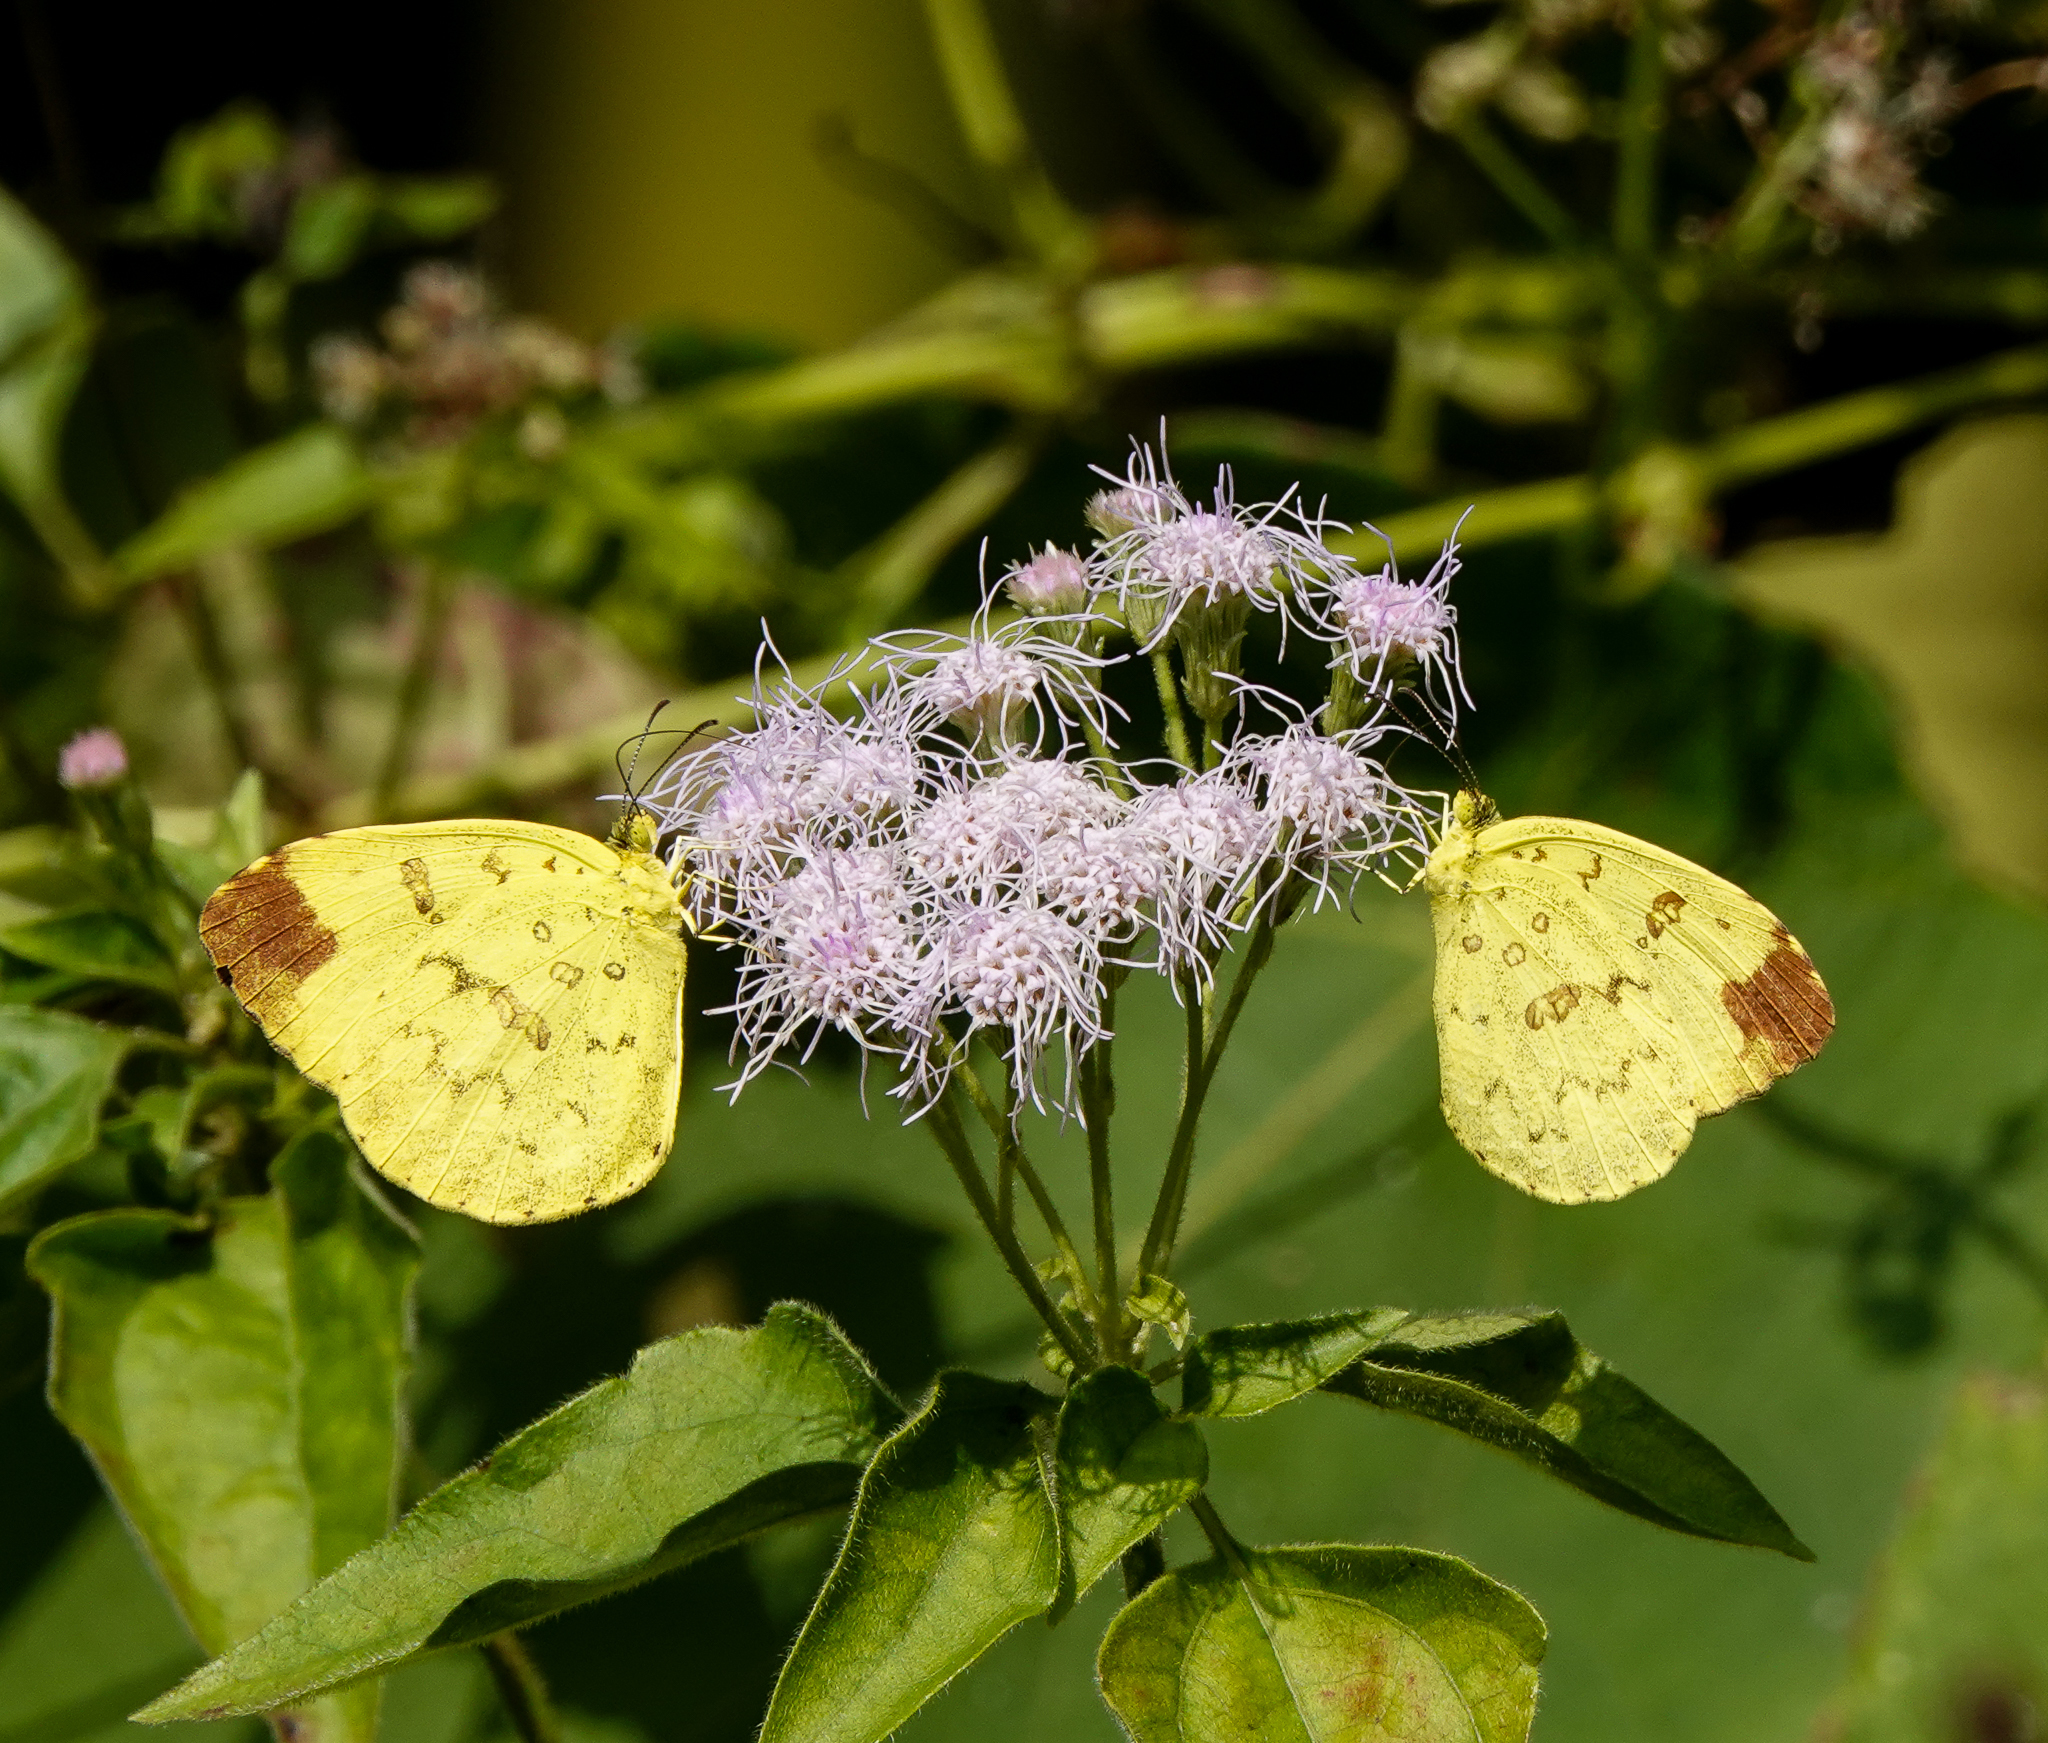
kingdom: Animalia
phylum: Arthropoda
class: Insecta
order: Lepidoptera
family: Pieridae
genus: Eurema
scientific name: Eurema blanda
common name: Three-spot grass yellow
